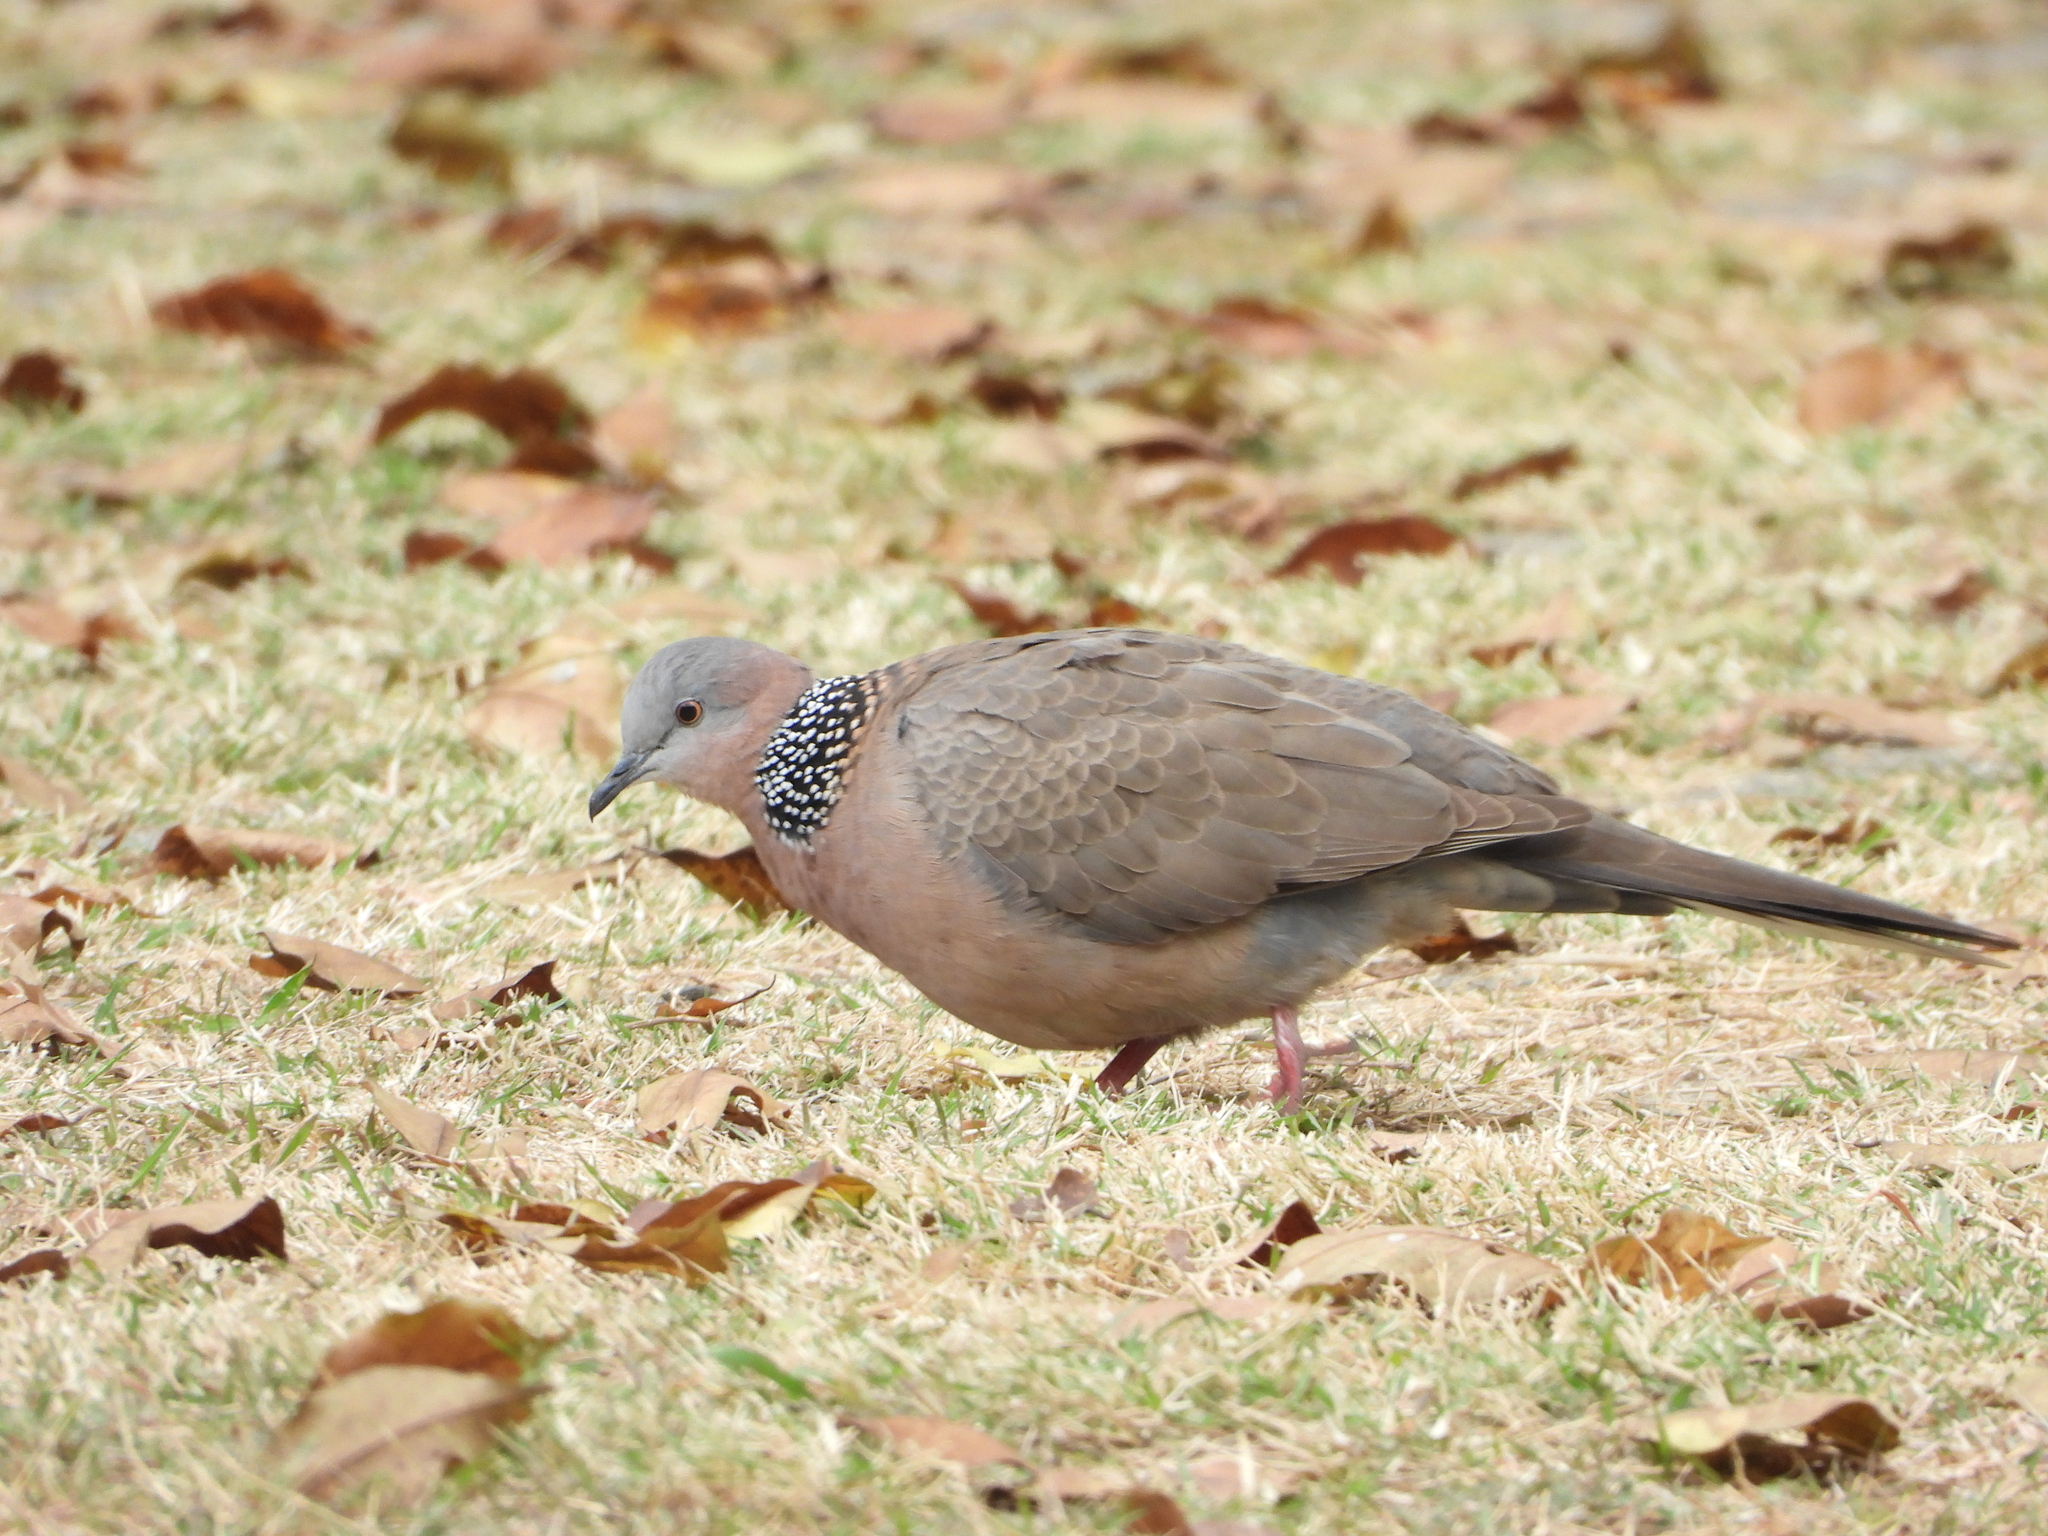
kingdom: Animalia
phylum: Chordata
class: Aves
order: Columbiformes
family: Columbidae
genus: Spilopelia
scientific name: Spilopelia chinensis
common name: Spotted dove
